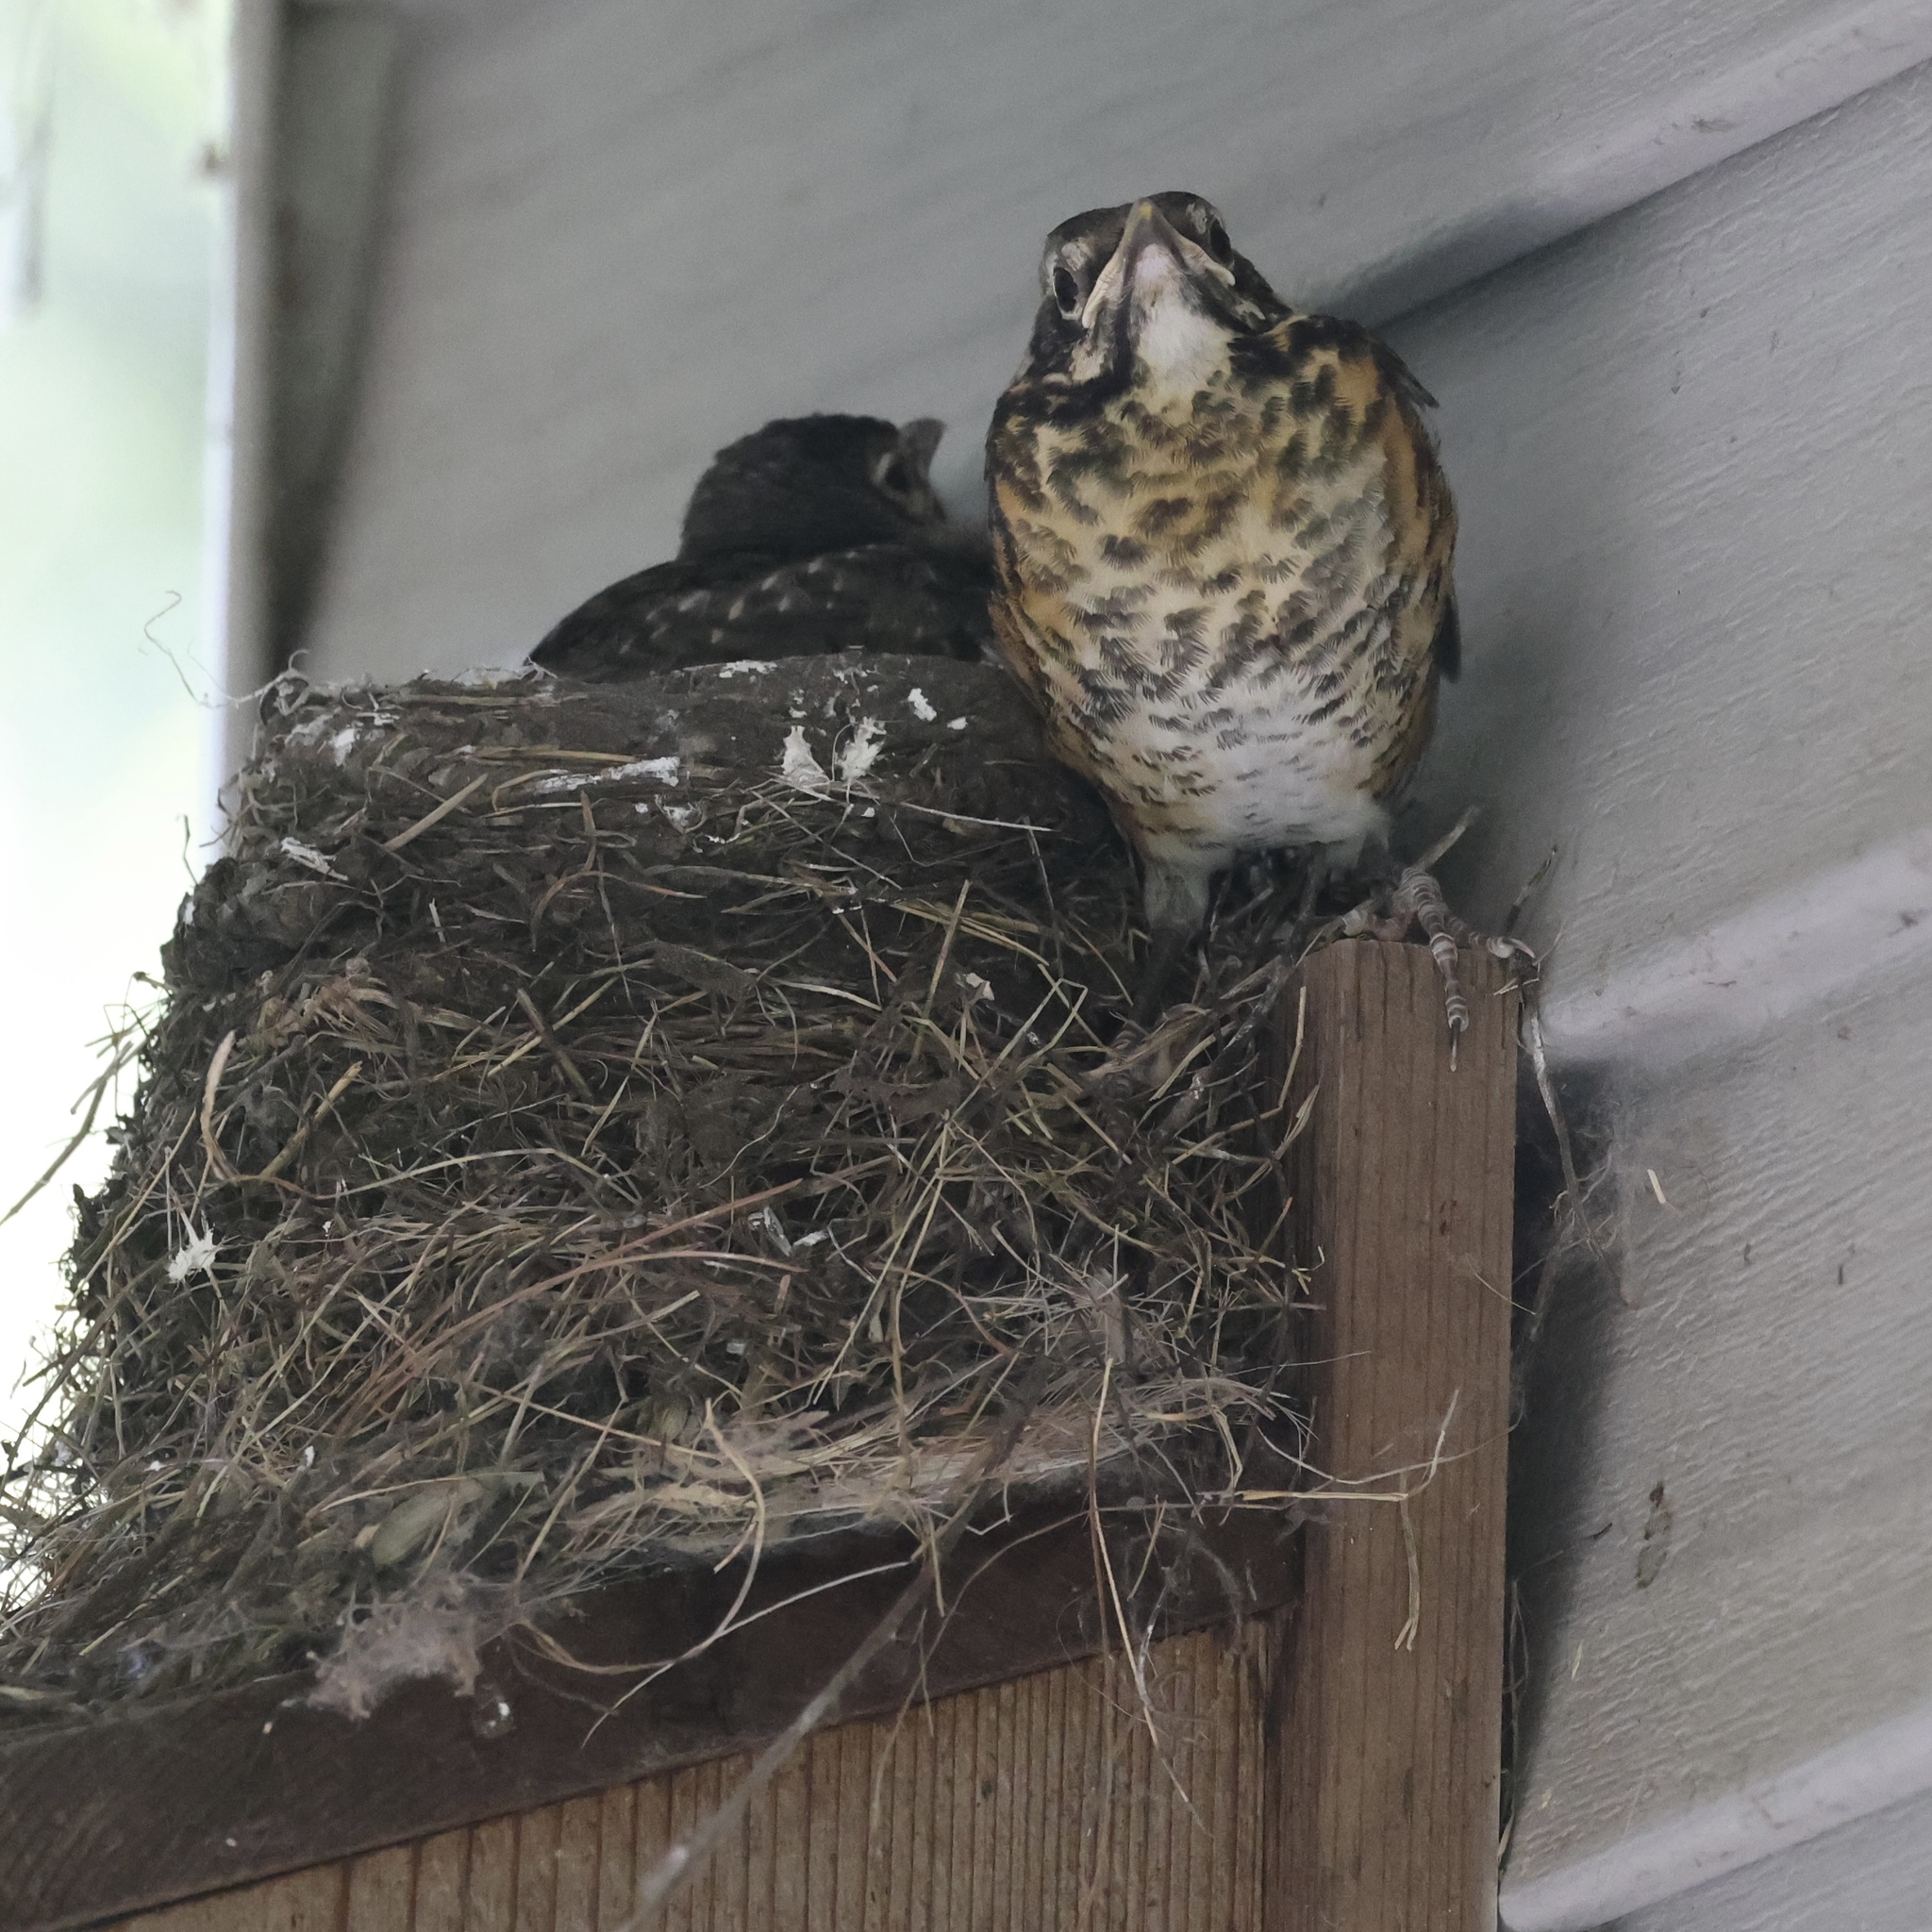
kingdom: Animalia
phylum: Chordata
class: Aves
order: Passeriformes
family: Turdidae
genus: Turdus
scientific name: Turdus migratorius
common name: American robin
